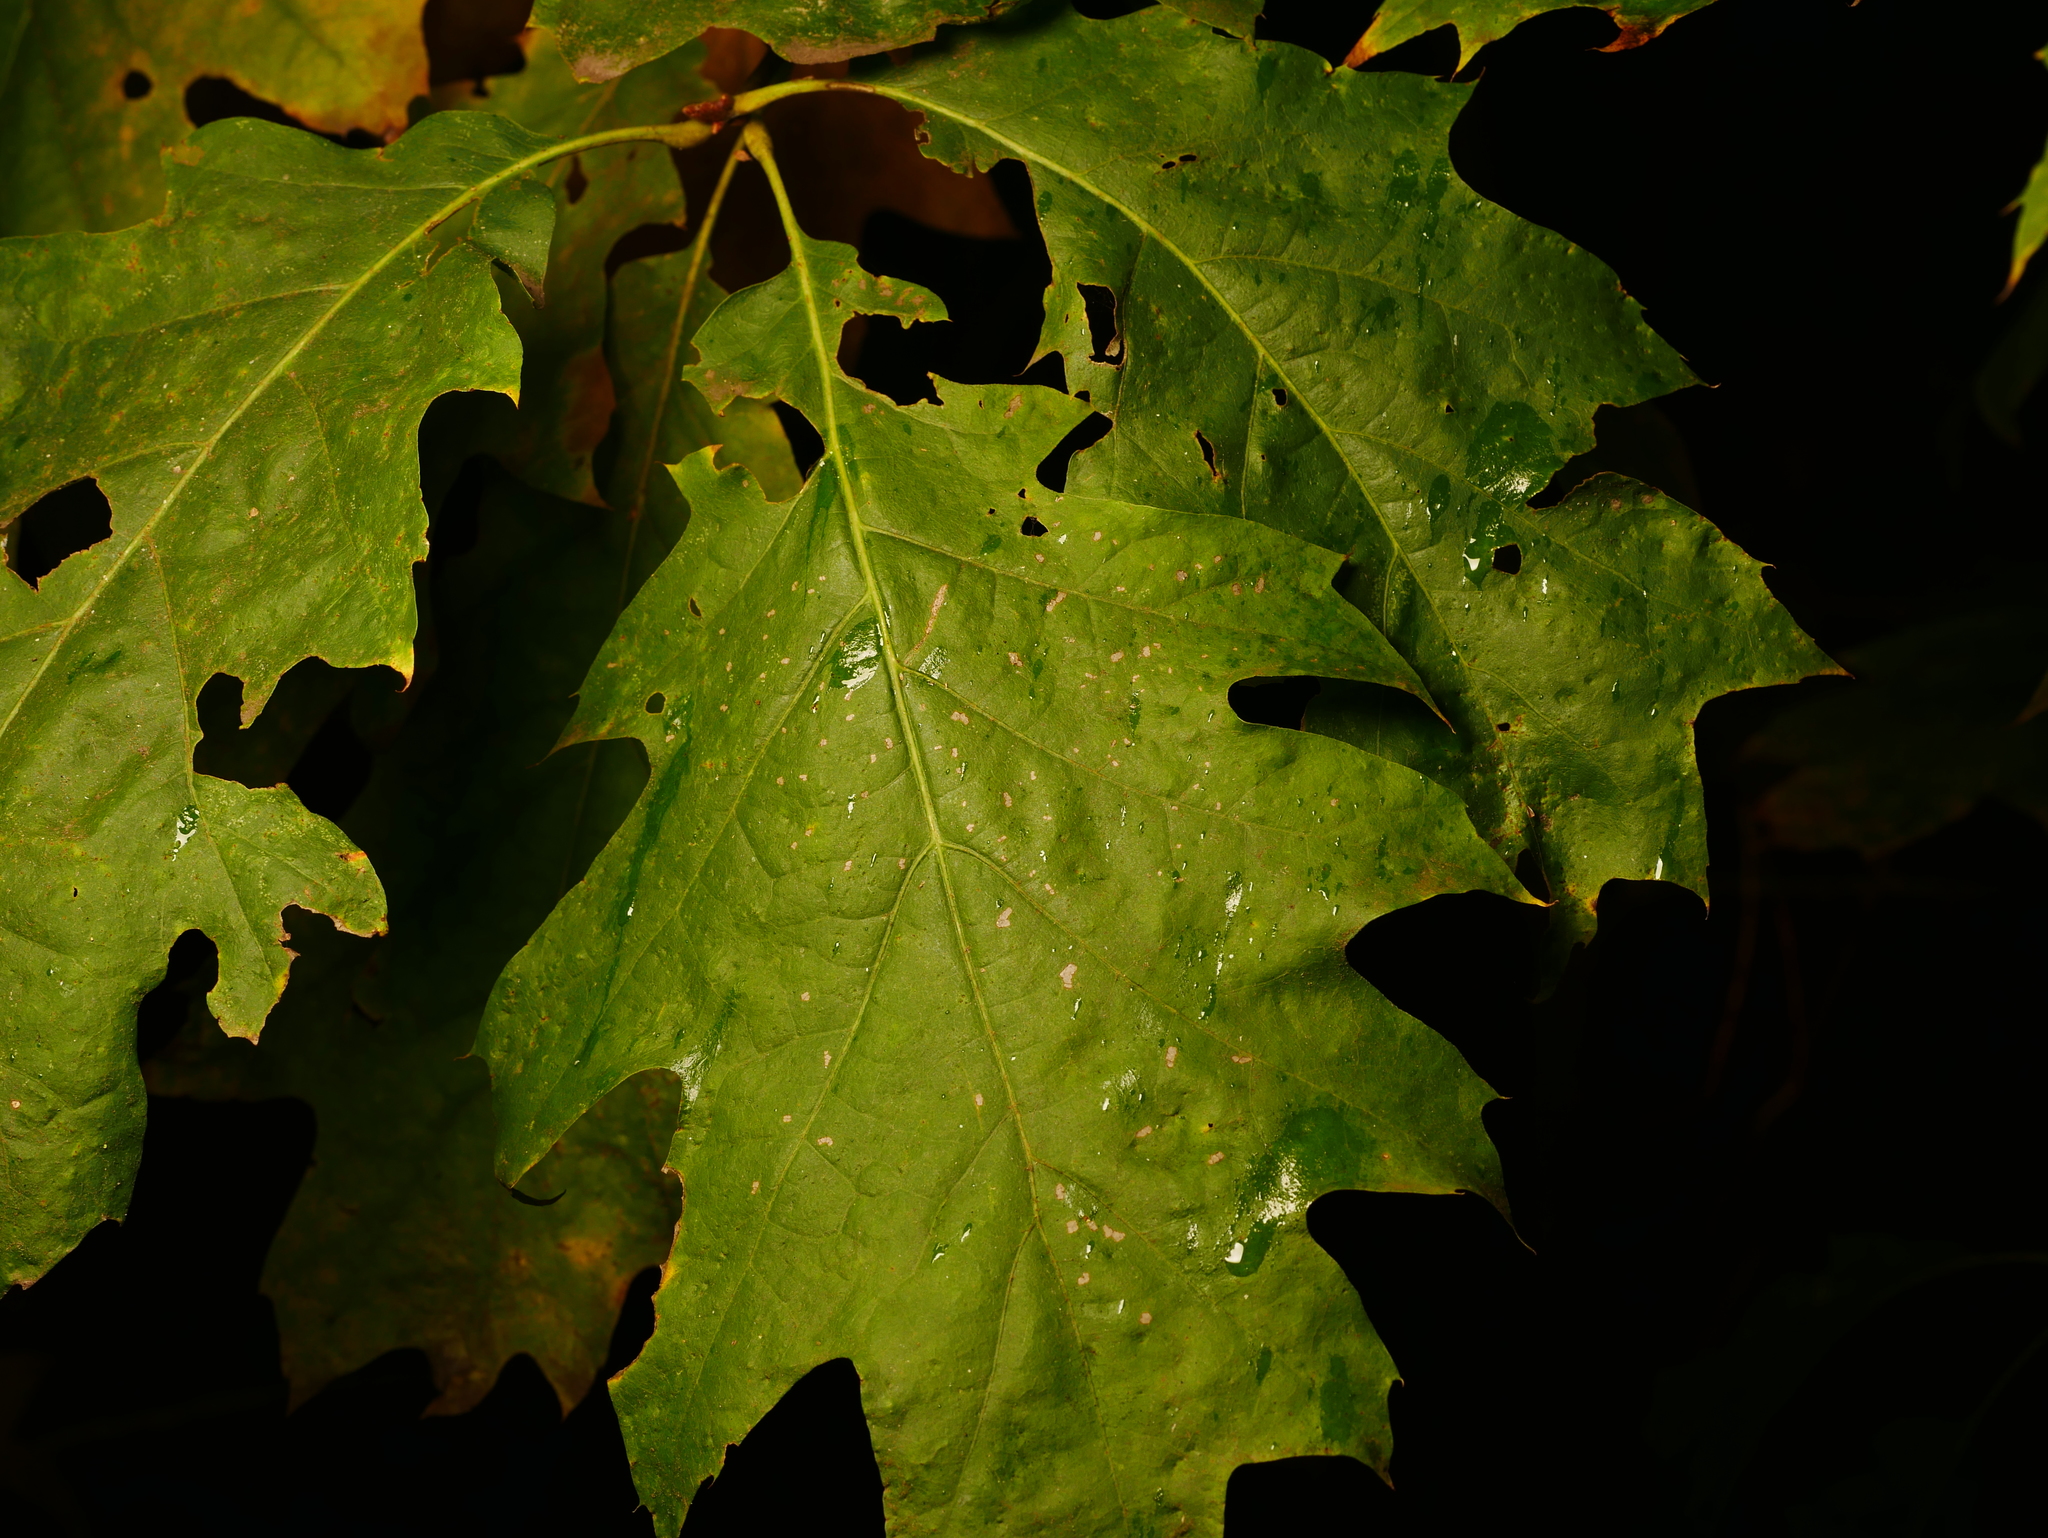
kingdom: Plantae
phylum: Tracheophyta
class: Magnoliopsida
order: Fagales
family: Fagaceae
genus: Quercus
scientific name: Quercus rubra
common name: Red oak
